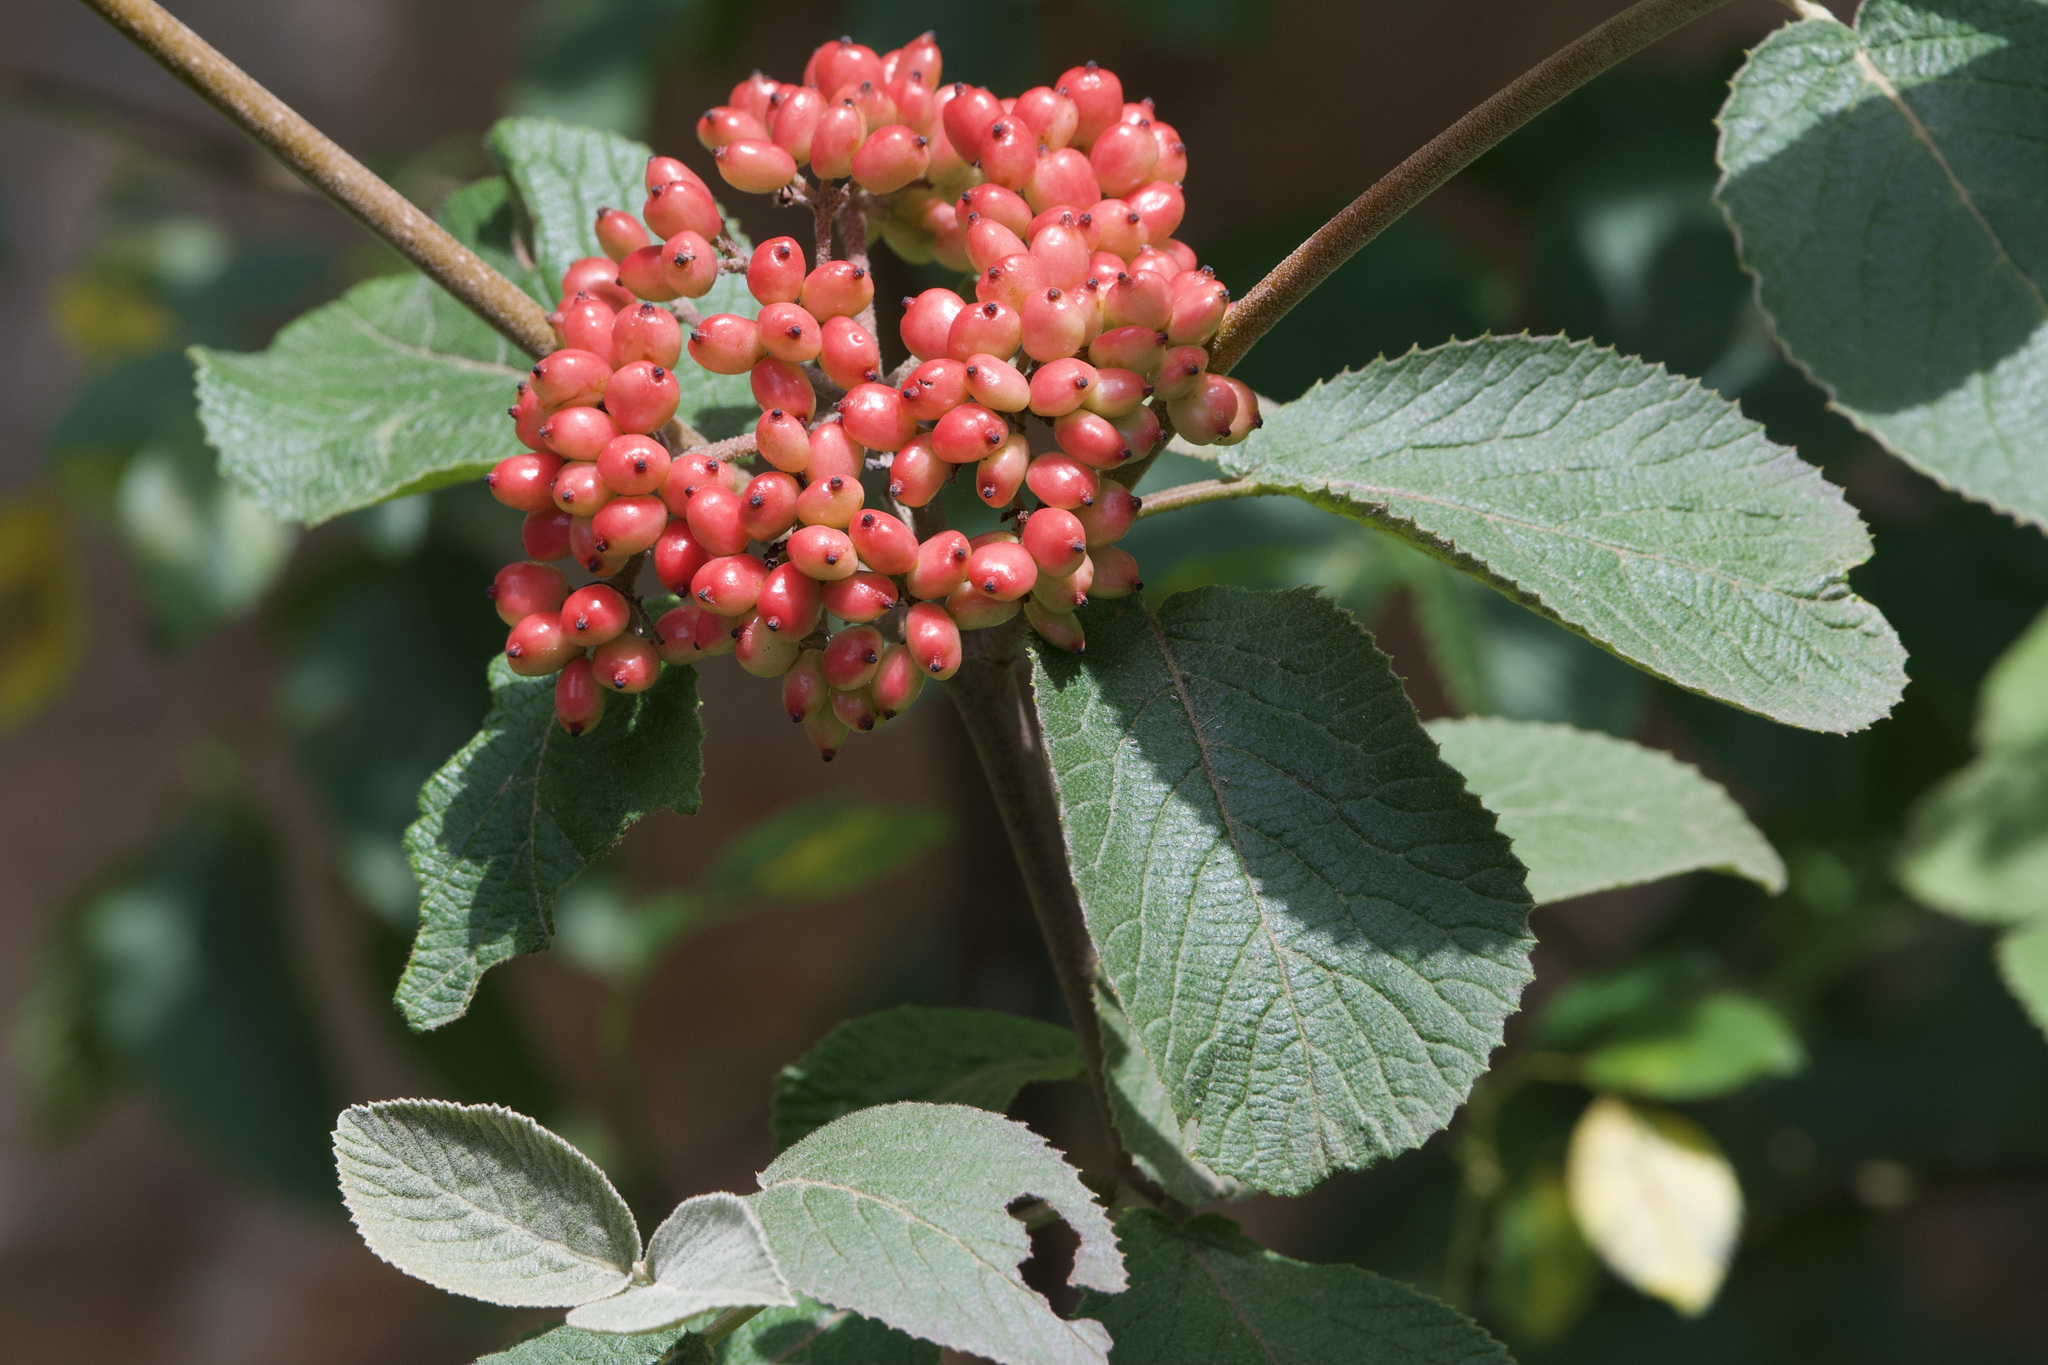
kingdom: Plantae
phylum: Tracheophyta
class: Magnoliopsida
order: Dipsacales
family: Viburnaceae
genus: Viburnum
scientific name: Viburnum lantana
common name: Wayfaring tree
